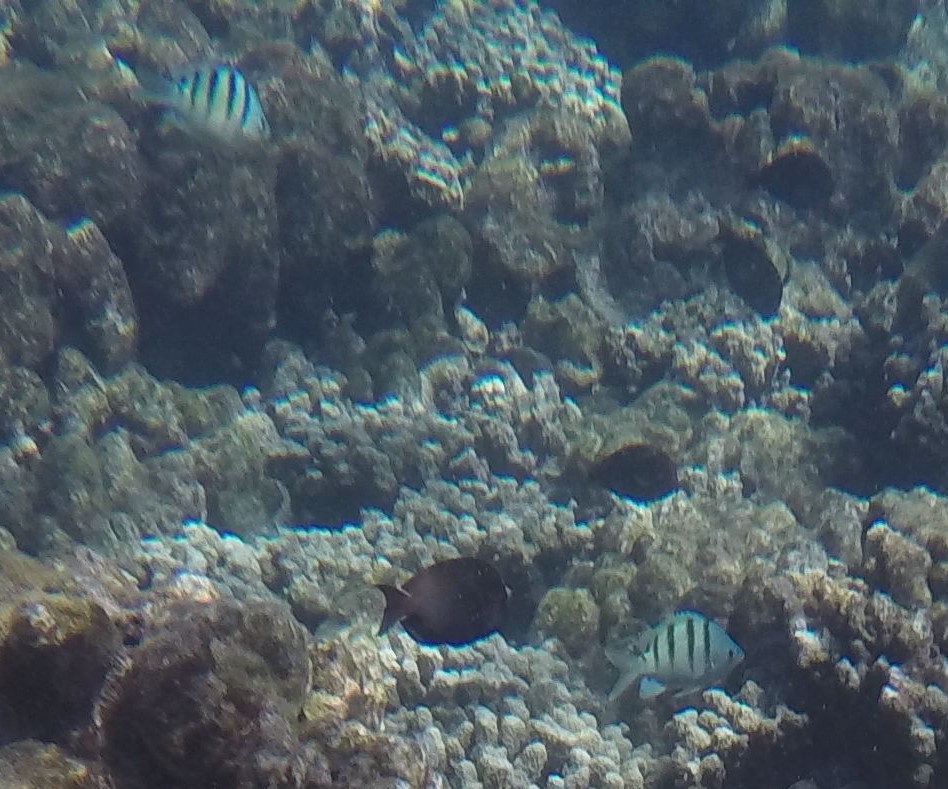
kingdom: Animalia
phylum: Chordata
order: Perciformes
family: Pomacentridae
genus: Abudefduf
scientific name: Abudefduf abdominalis
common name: Green damselfish
